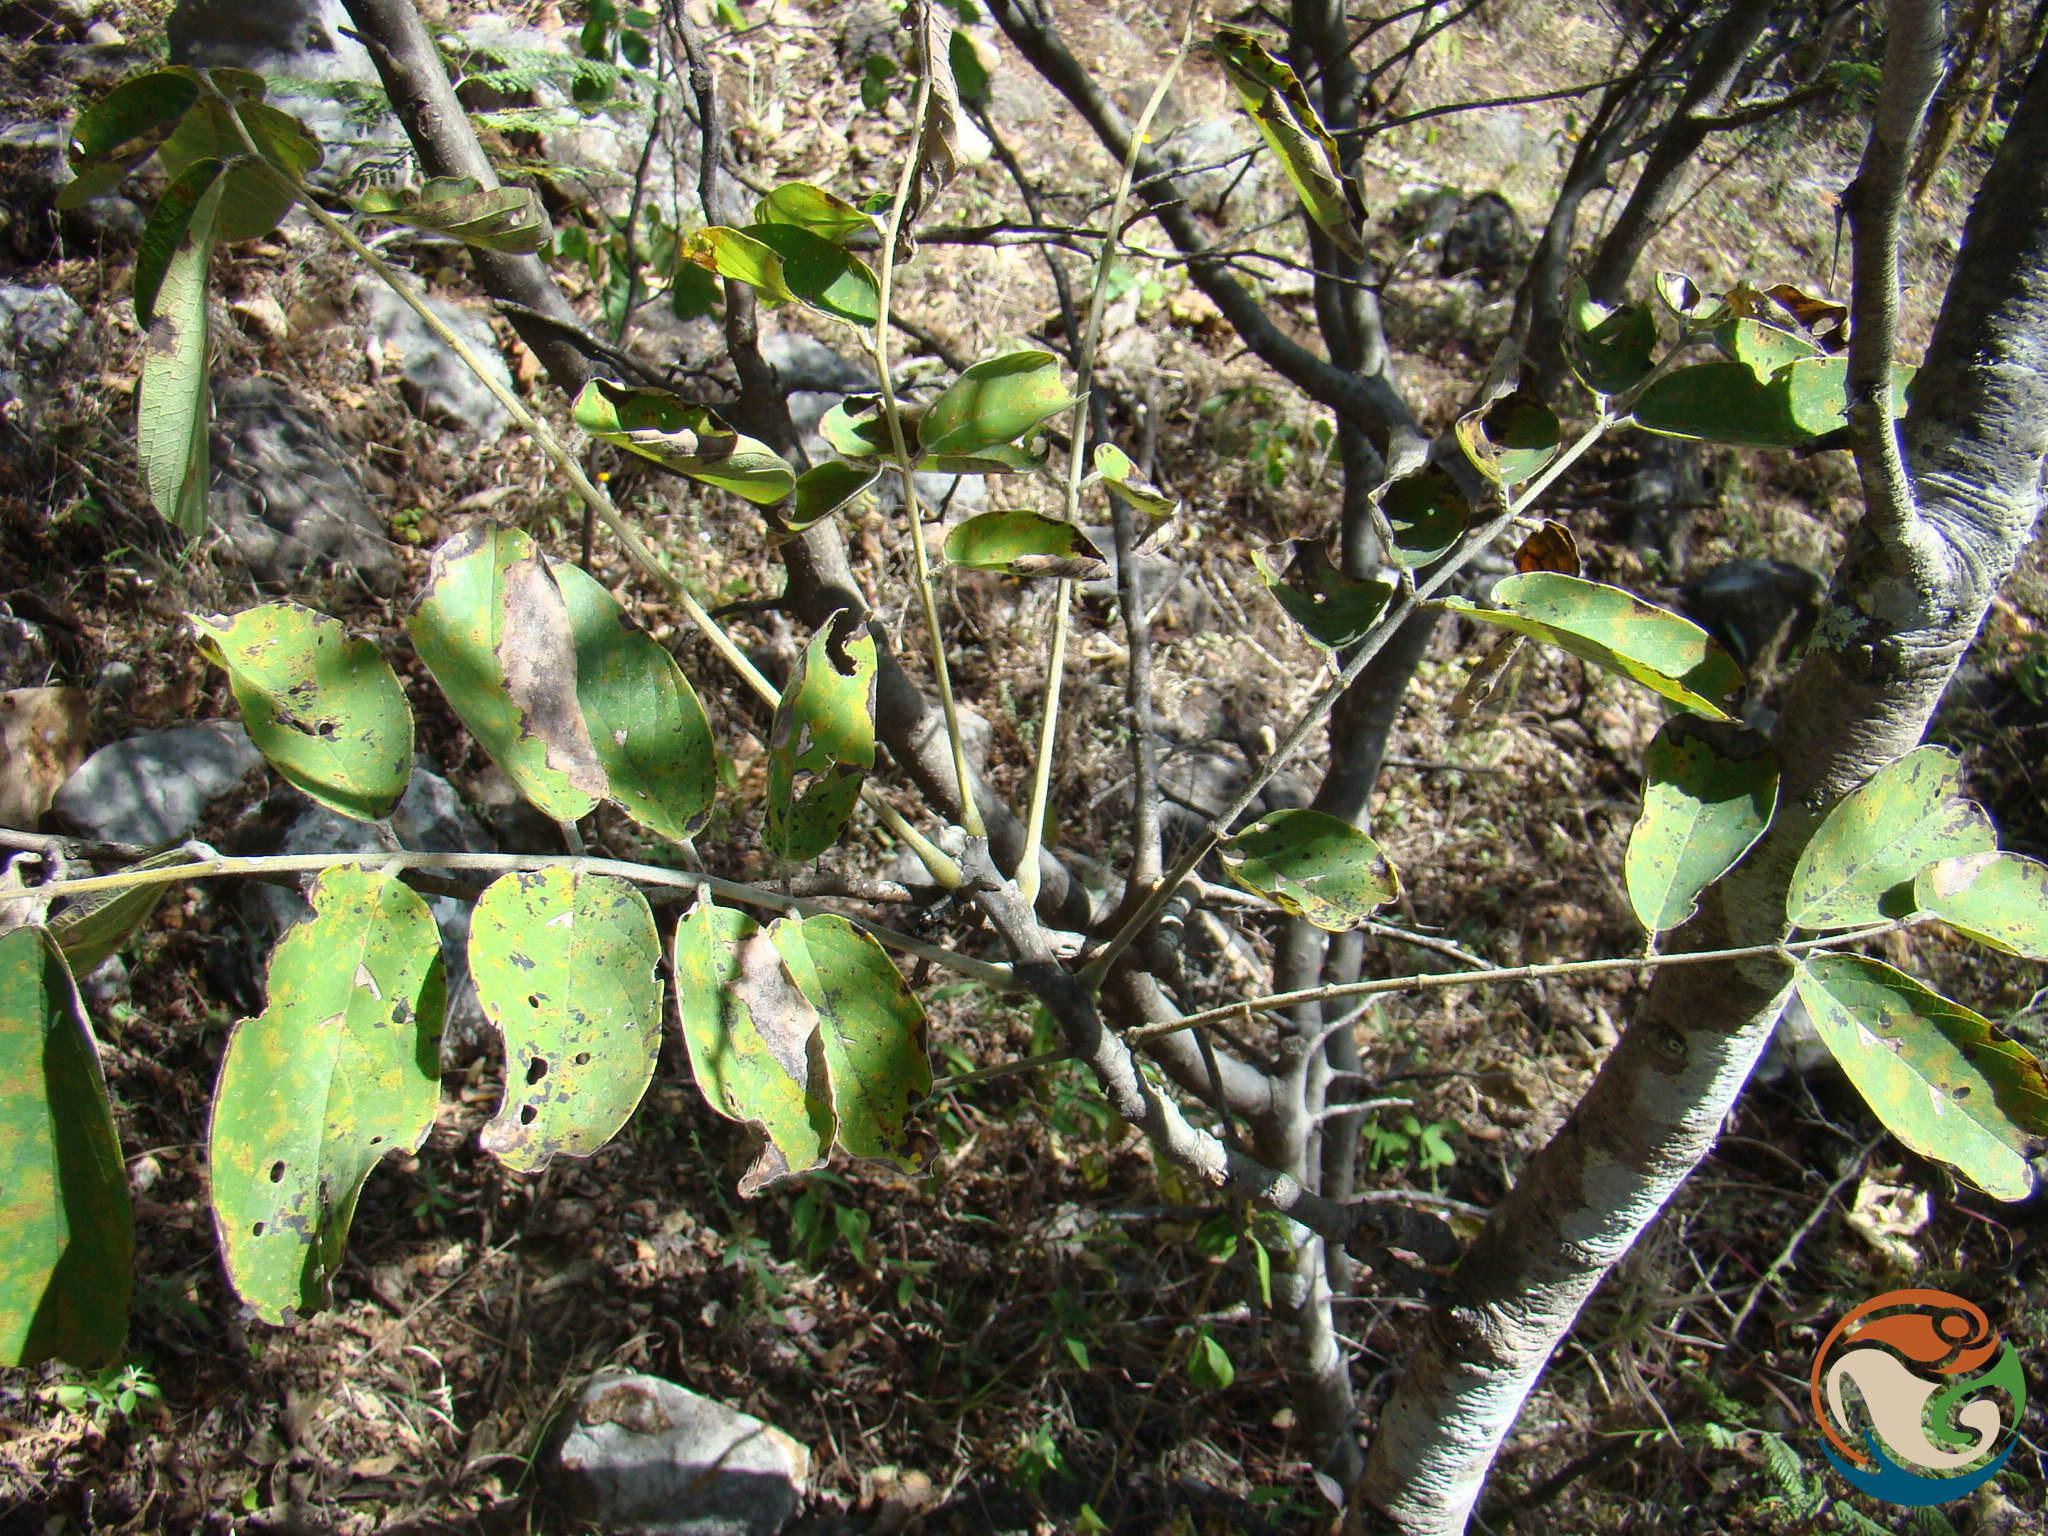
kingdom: Plantae
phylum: Tracheophyta
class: Magnoliopsida
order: Fabales
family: Fabaceae
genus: Piscidia
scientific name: Piscidia piscipula
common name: Florida fishpoison tree
